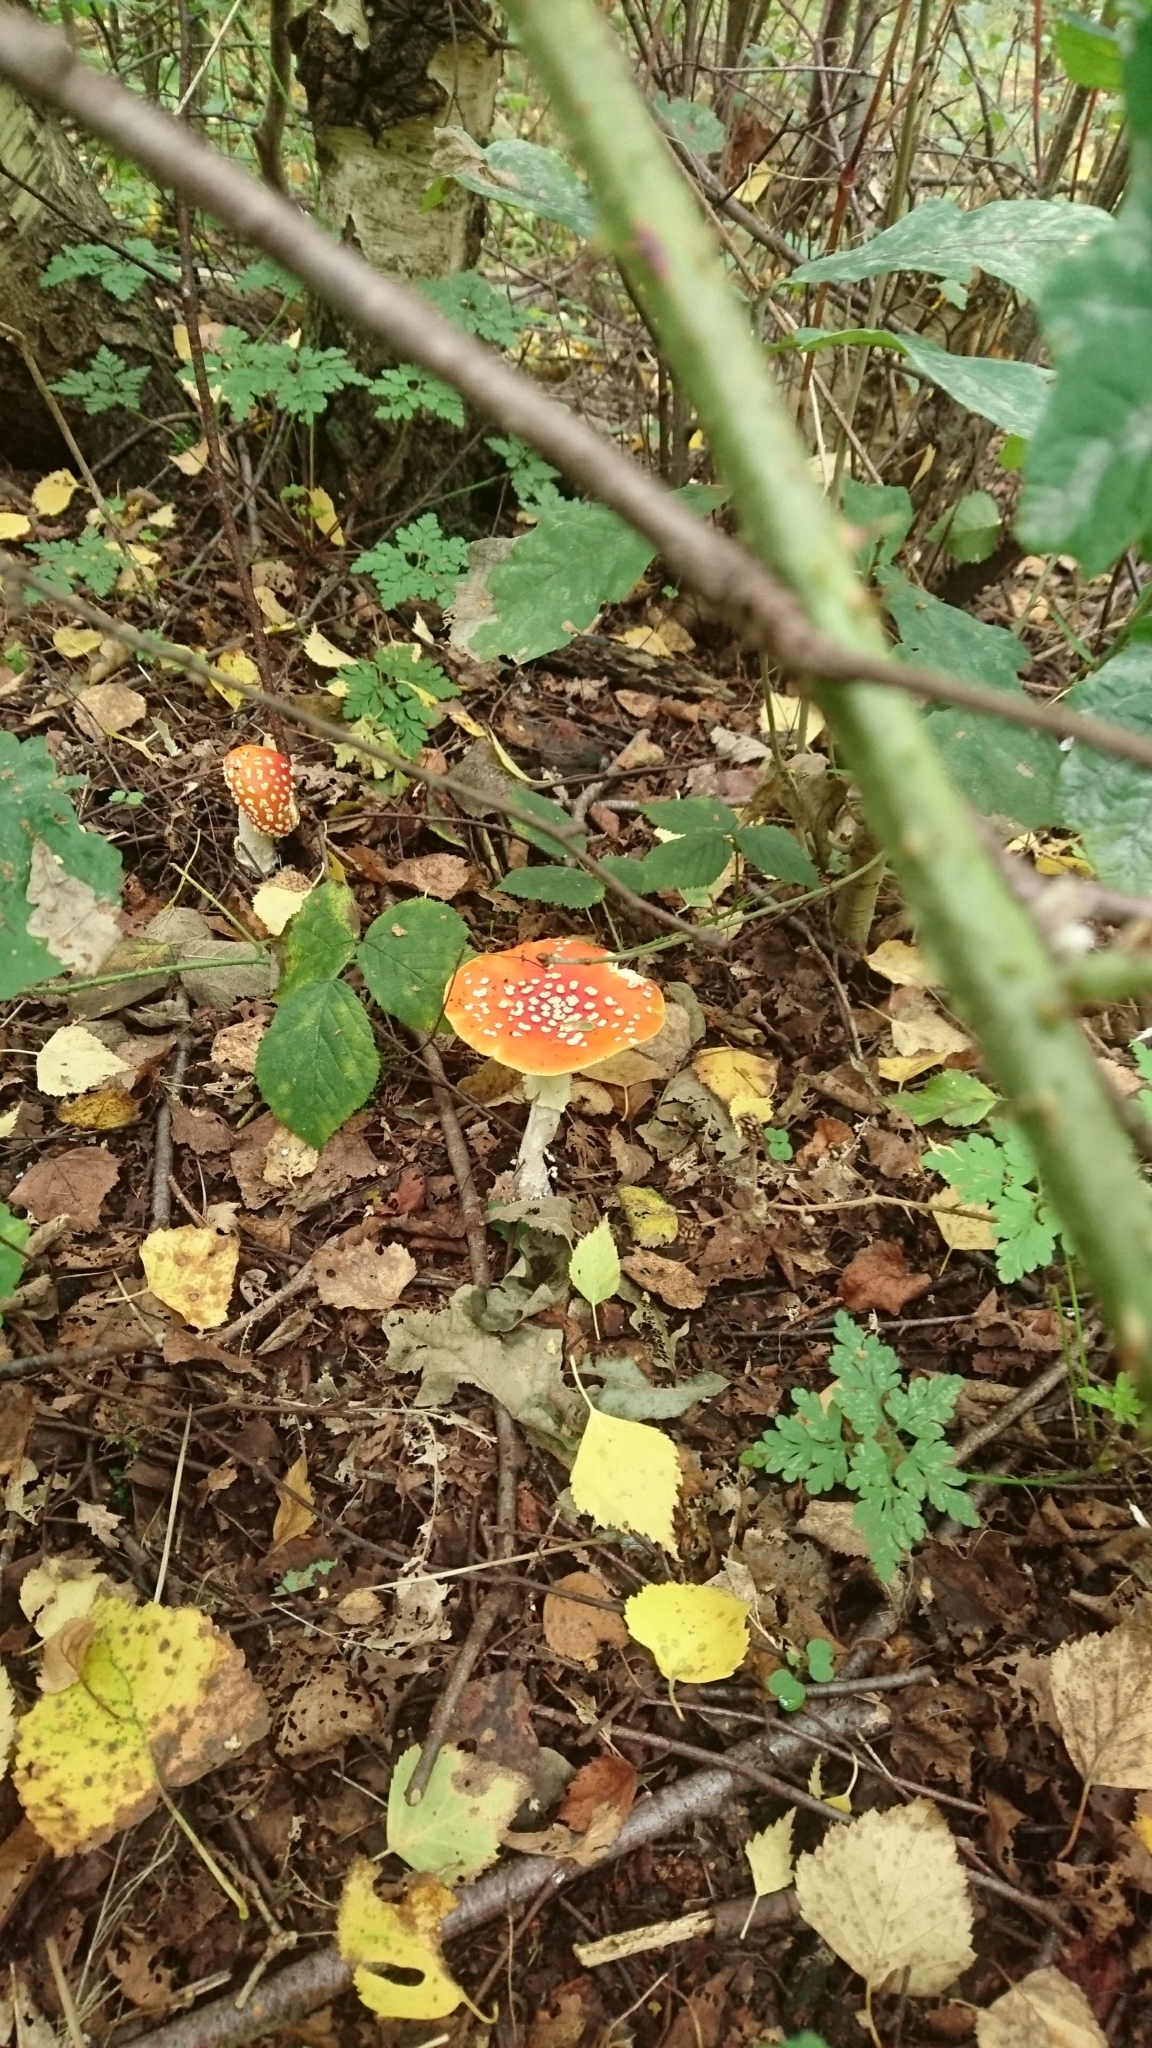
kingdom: Fungi
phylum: Basidiomycota
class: Agaricomycetes
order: Agaricales
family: Amanitaceae
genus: Amanita
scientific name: Amanita muscaria
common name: Fly agaric
